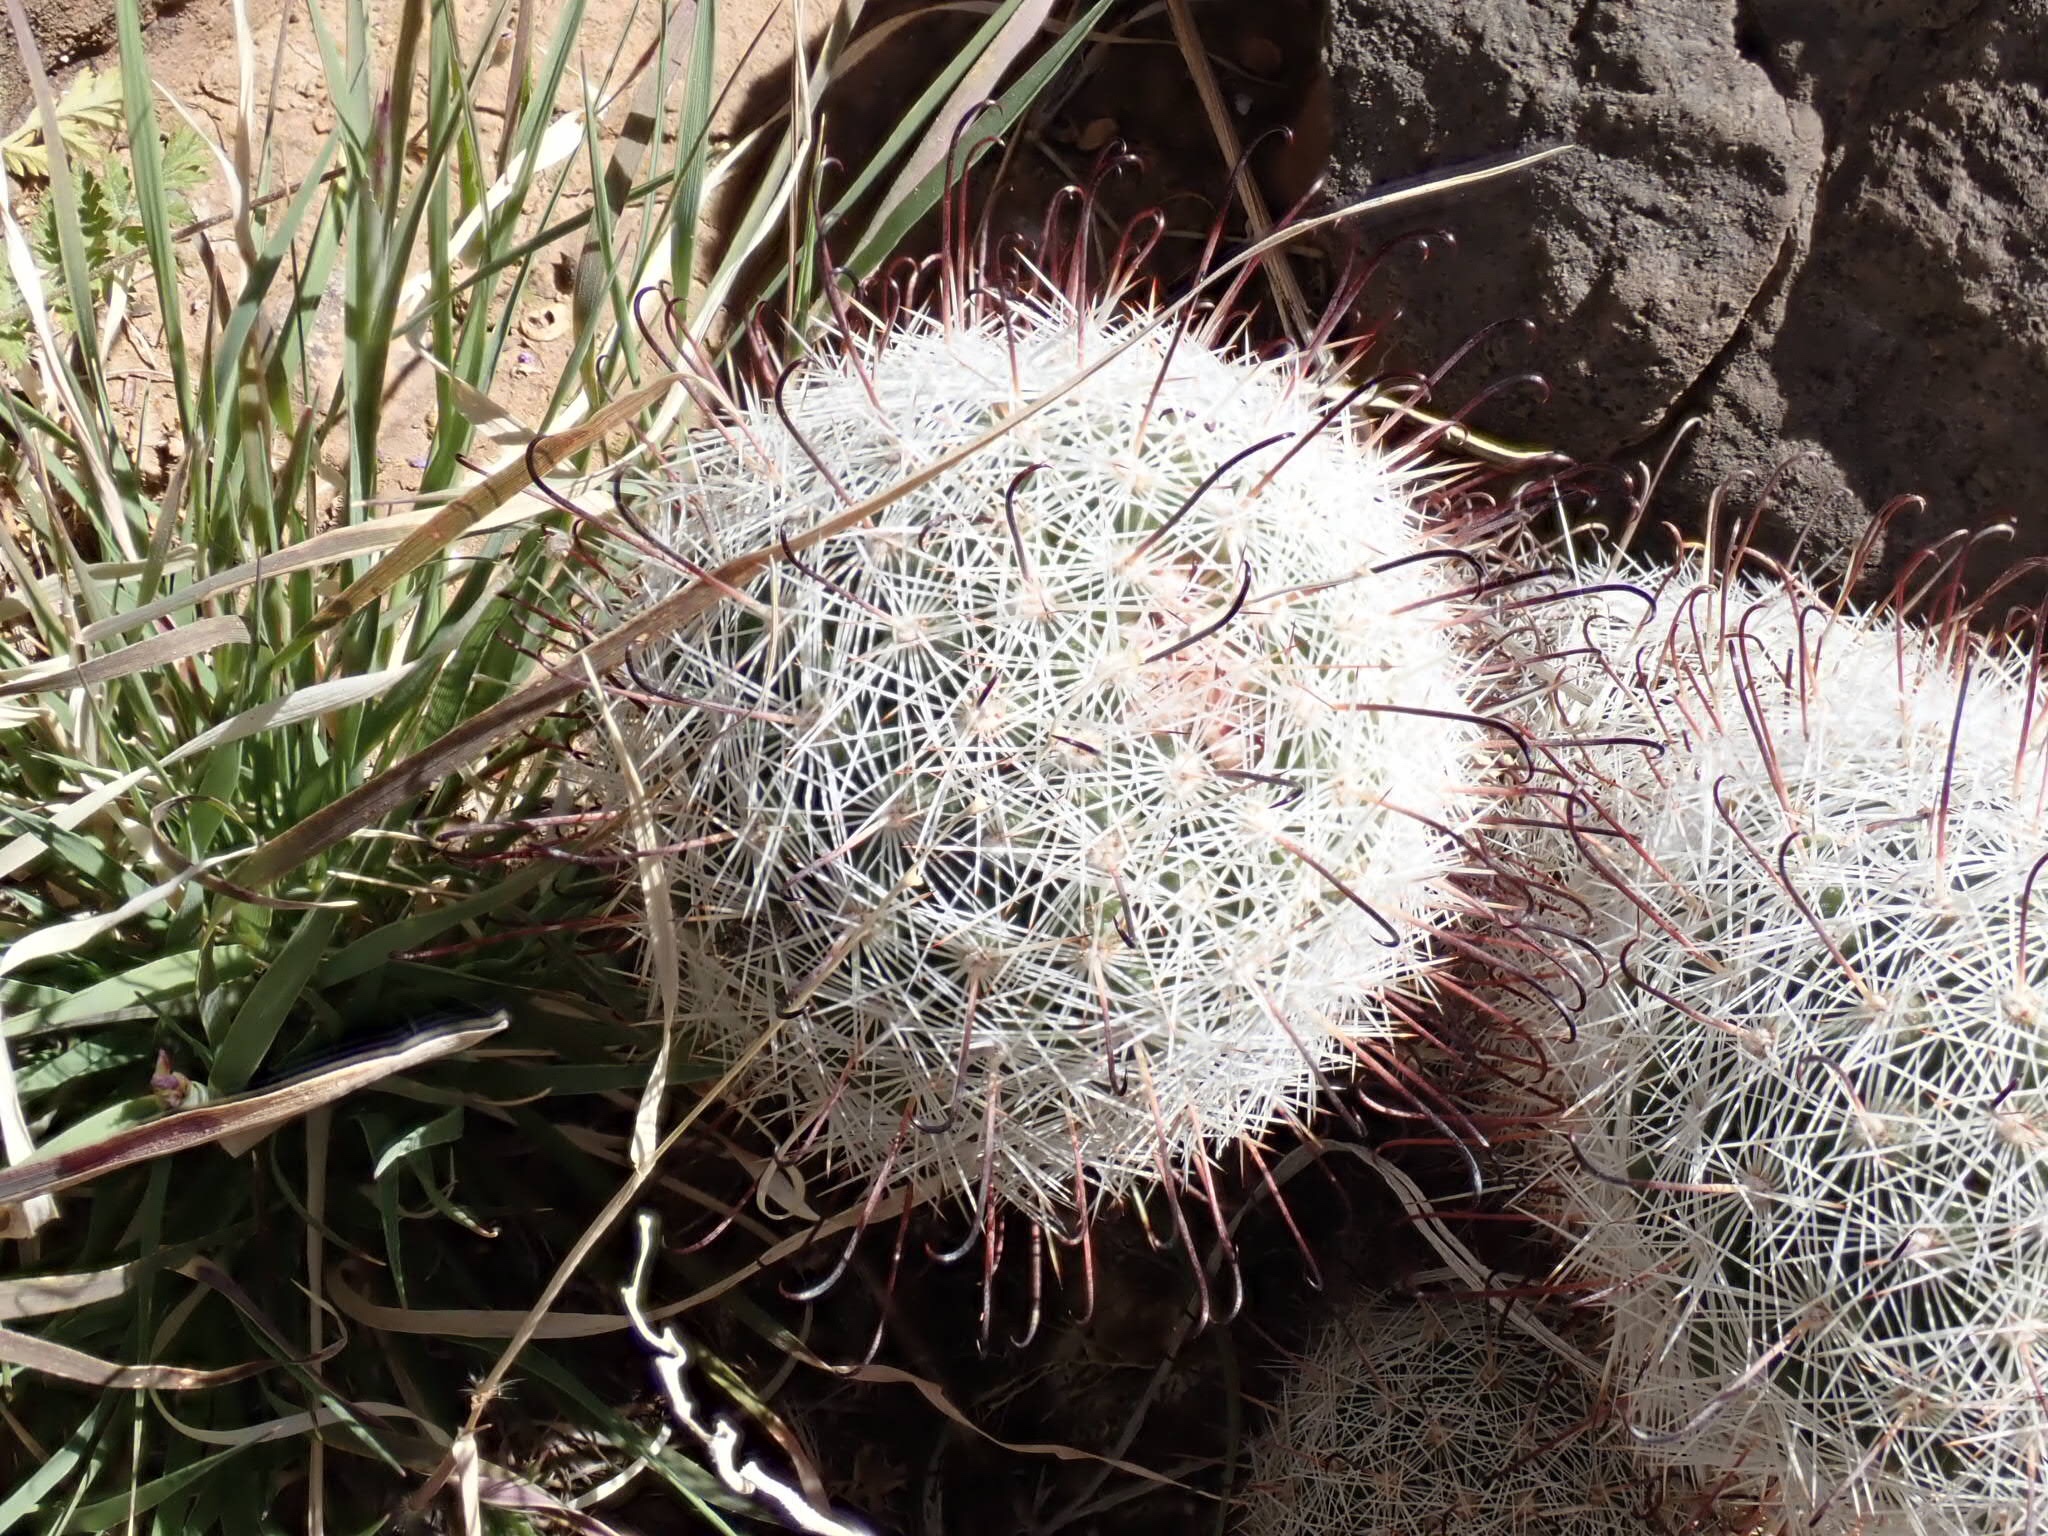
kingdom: Plantae
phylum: Tracheophyta
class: Magnoliopsida
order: Caryophyllales
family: Cactaceae
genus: Cochemiea
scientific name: Cochemiea grahamii
